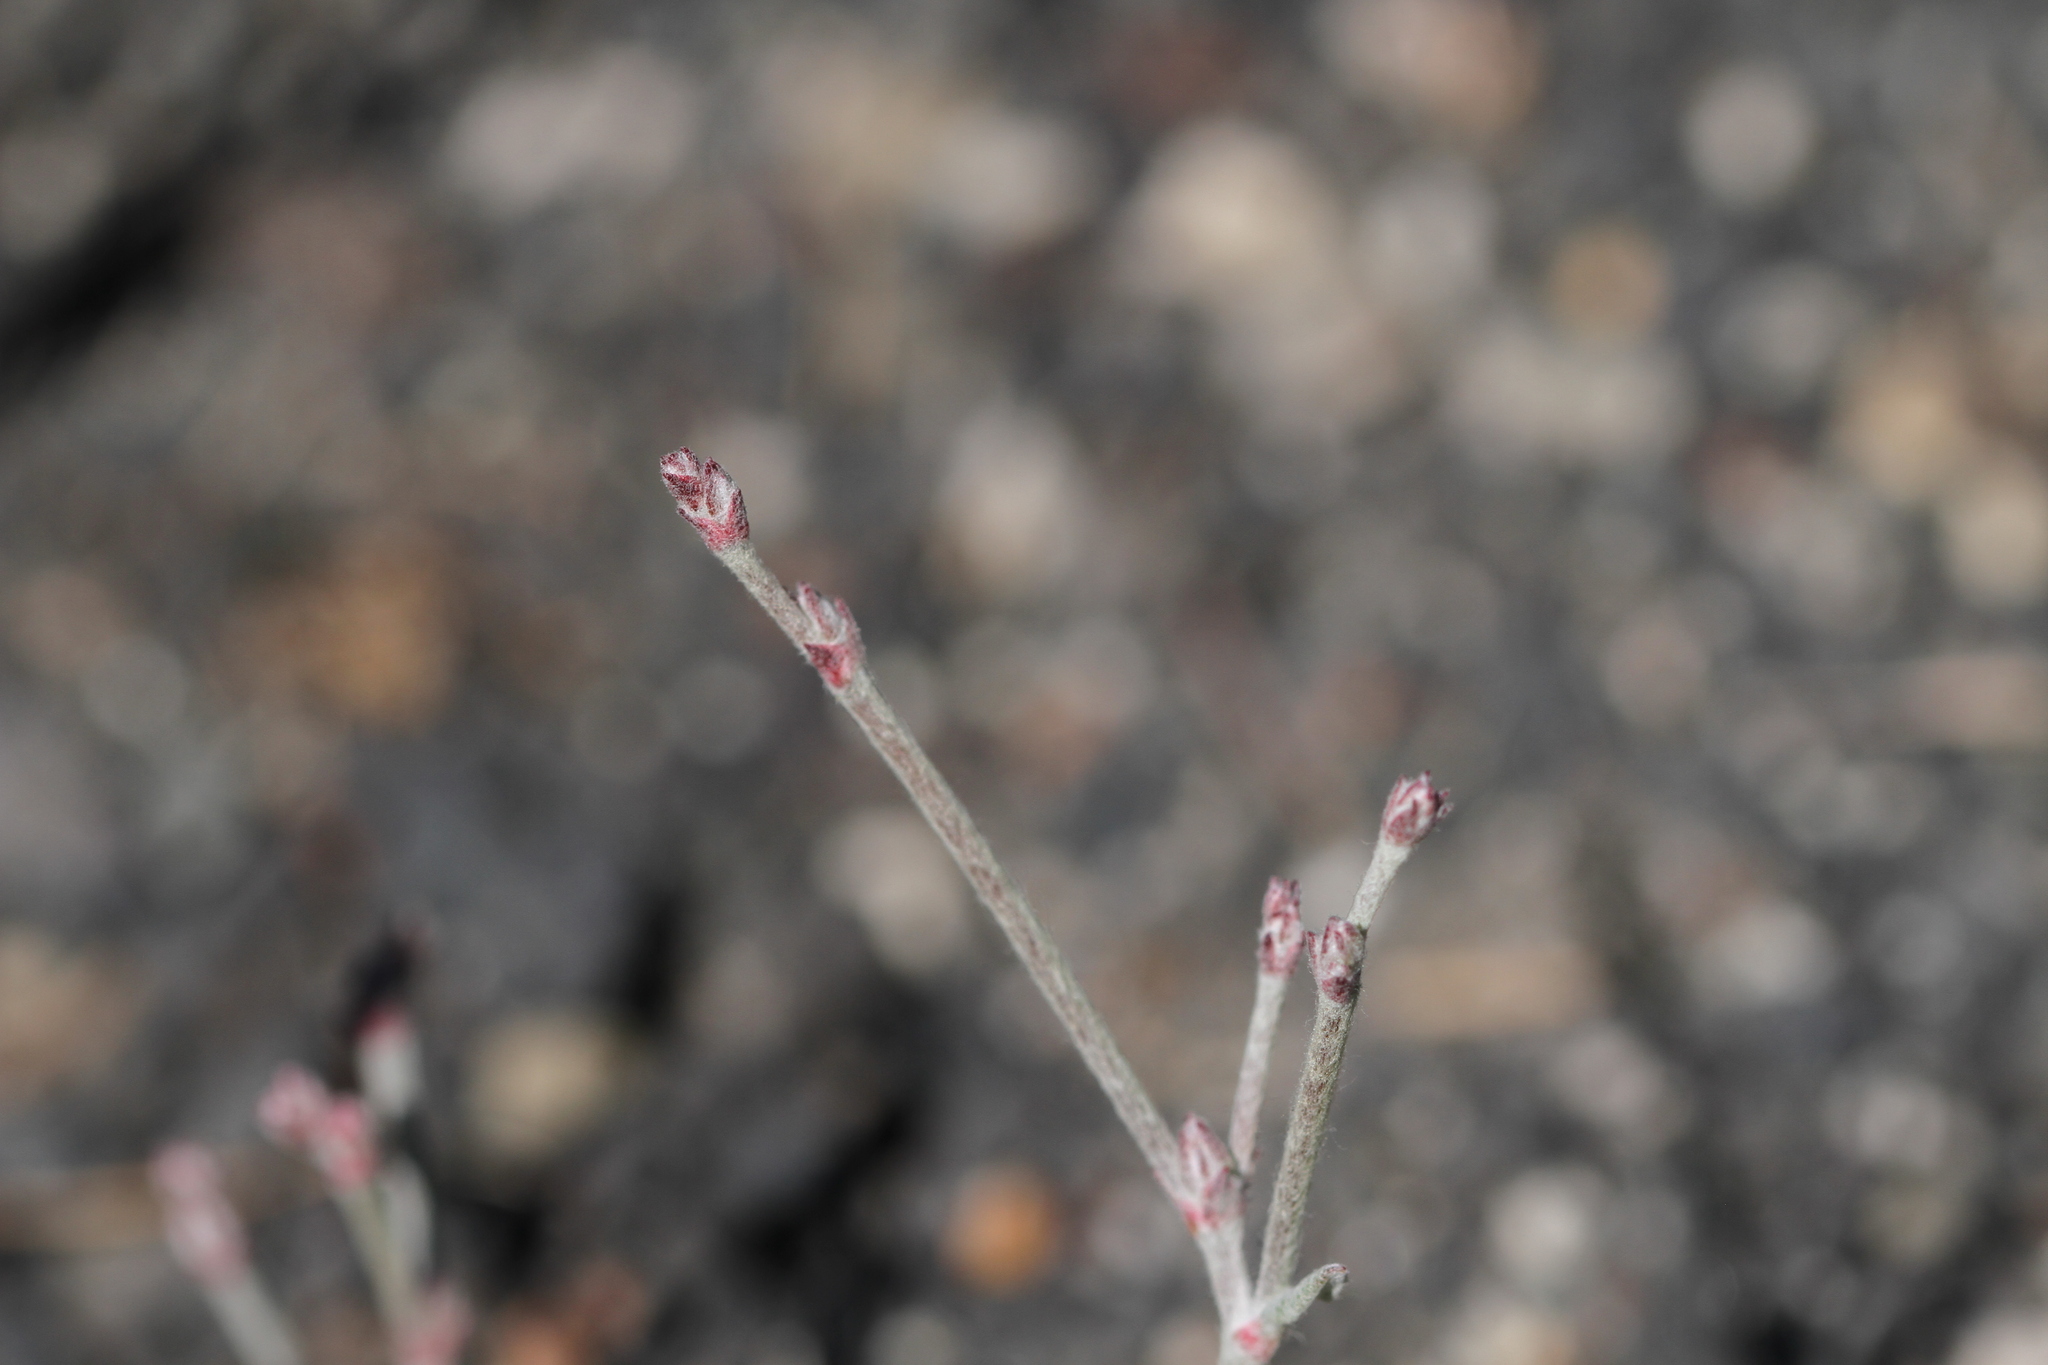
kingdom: Plantae
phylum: Tracheophyta
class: Magnoliopsida
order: Caryophyllales
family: Polygonaceae
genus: Eriogonum
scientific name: Eriogonum wrightii
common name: Bastard-sage
